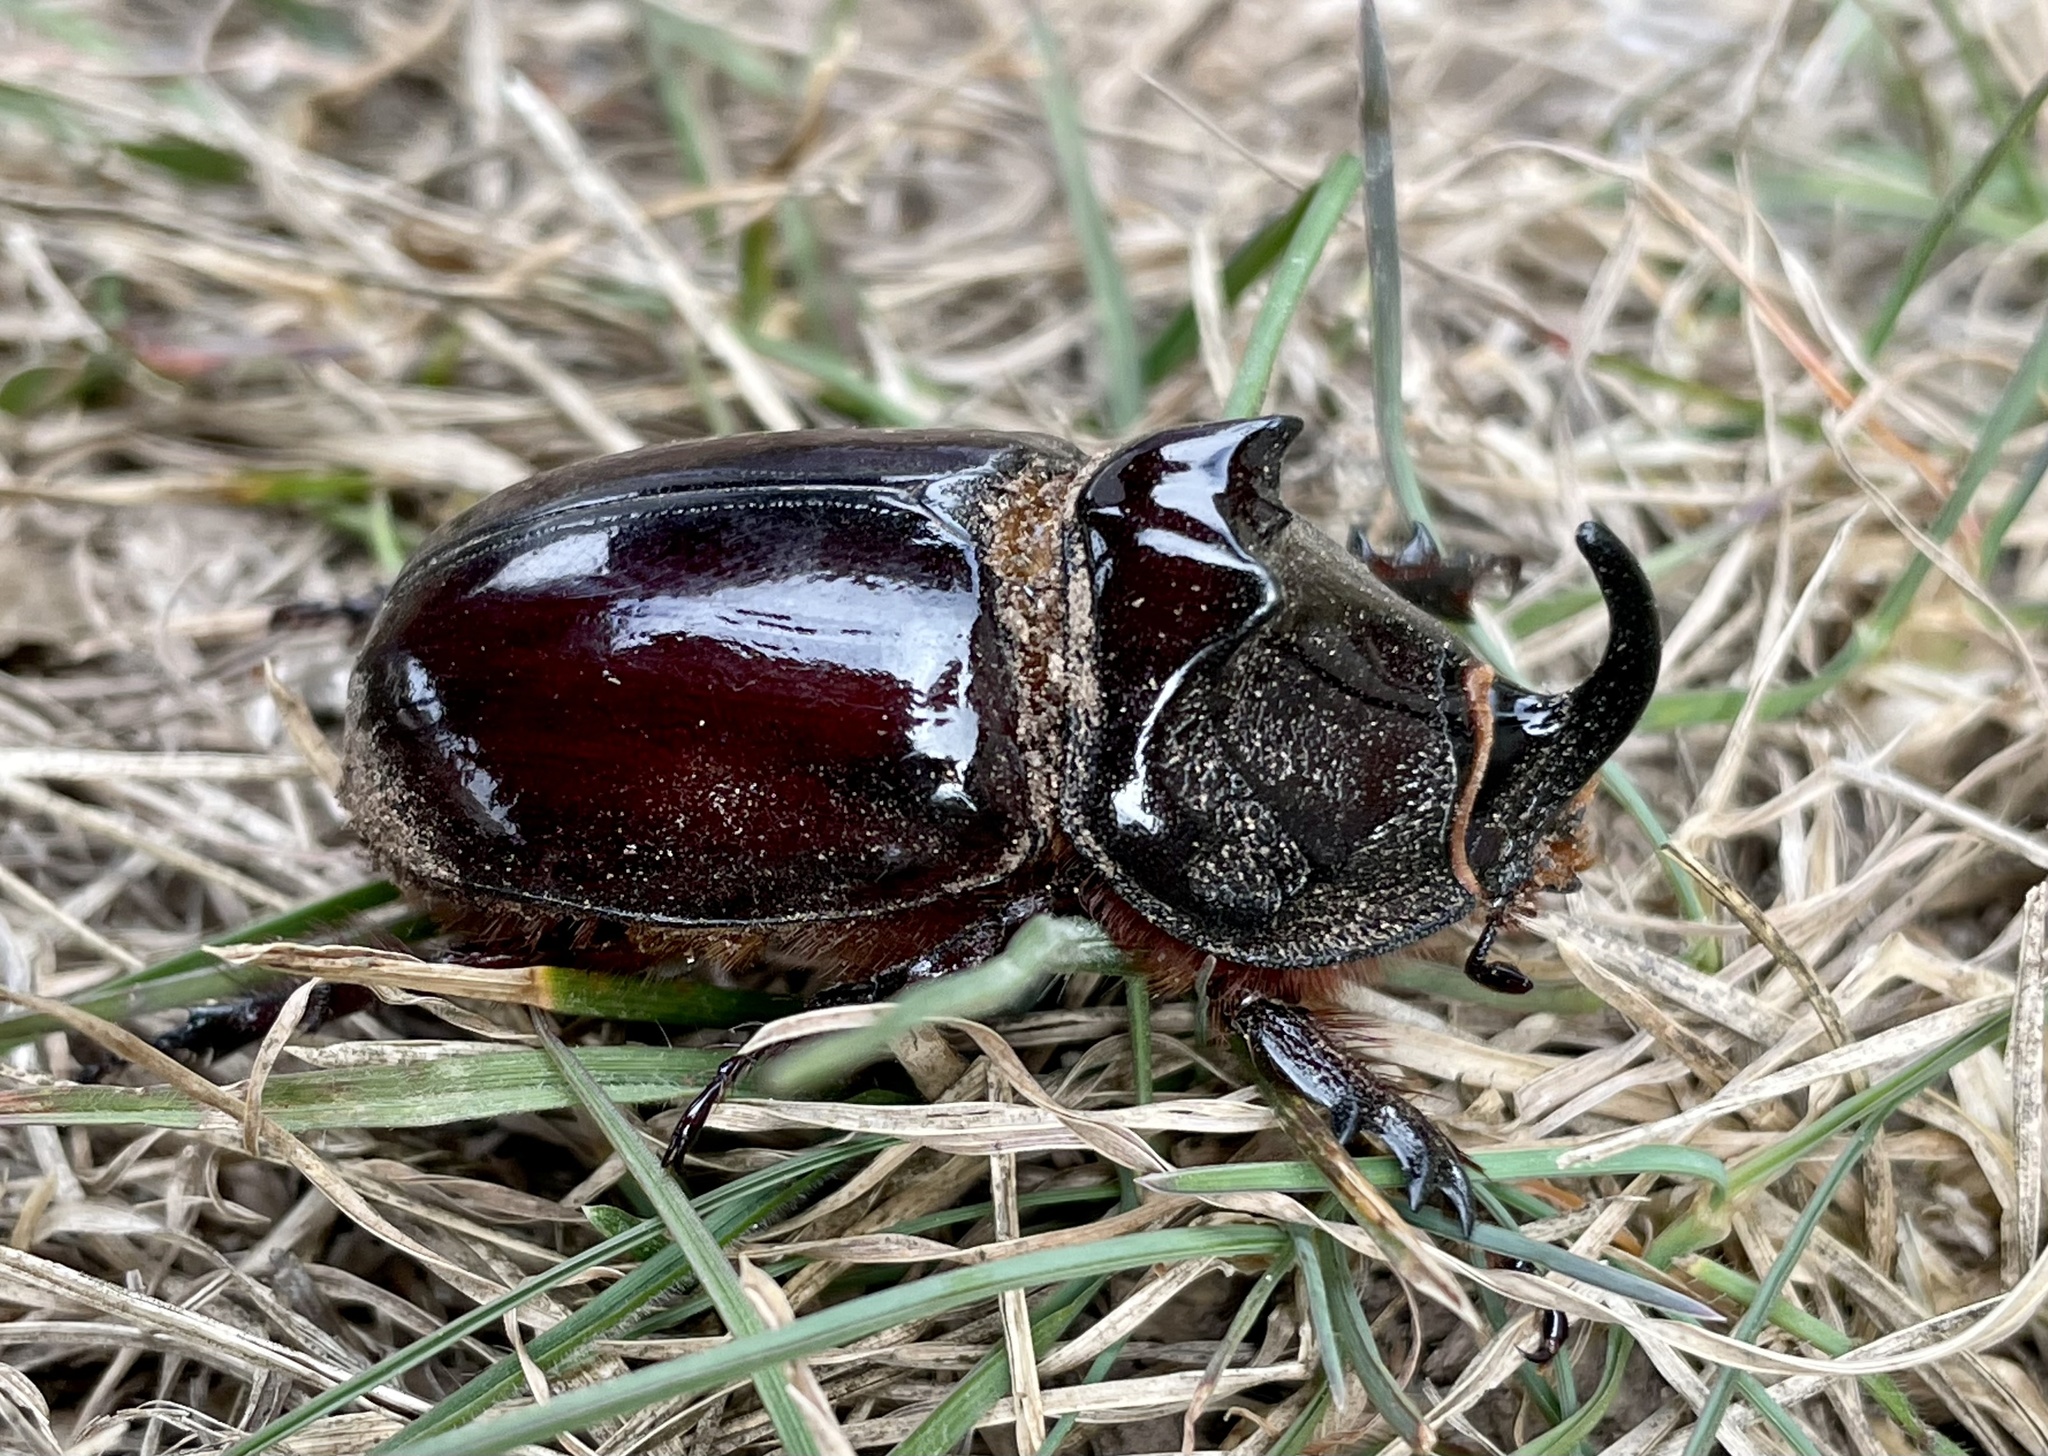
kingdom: Animalia
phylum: Arthropoda
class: Insecta
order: Coleoptera
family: Scarabaeidae
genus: Oryctes
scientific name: Oryctes nasicornis
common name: European rhinoceros beetle
